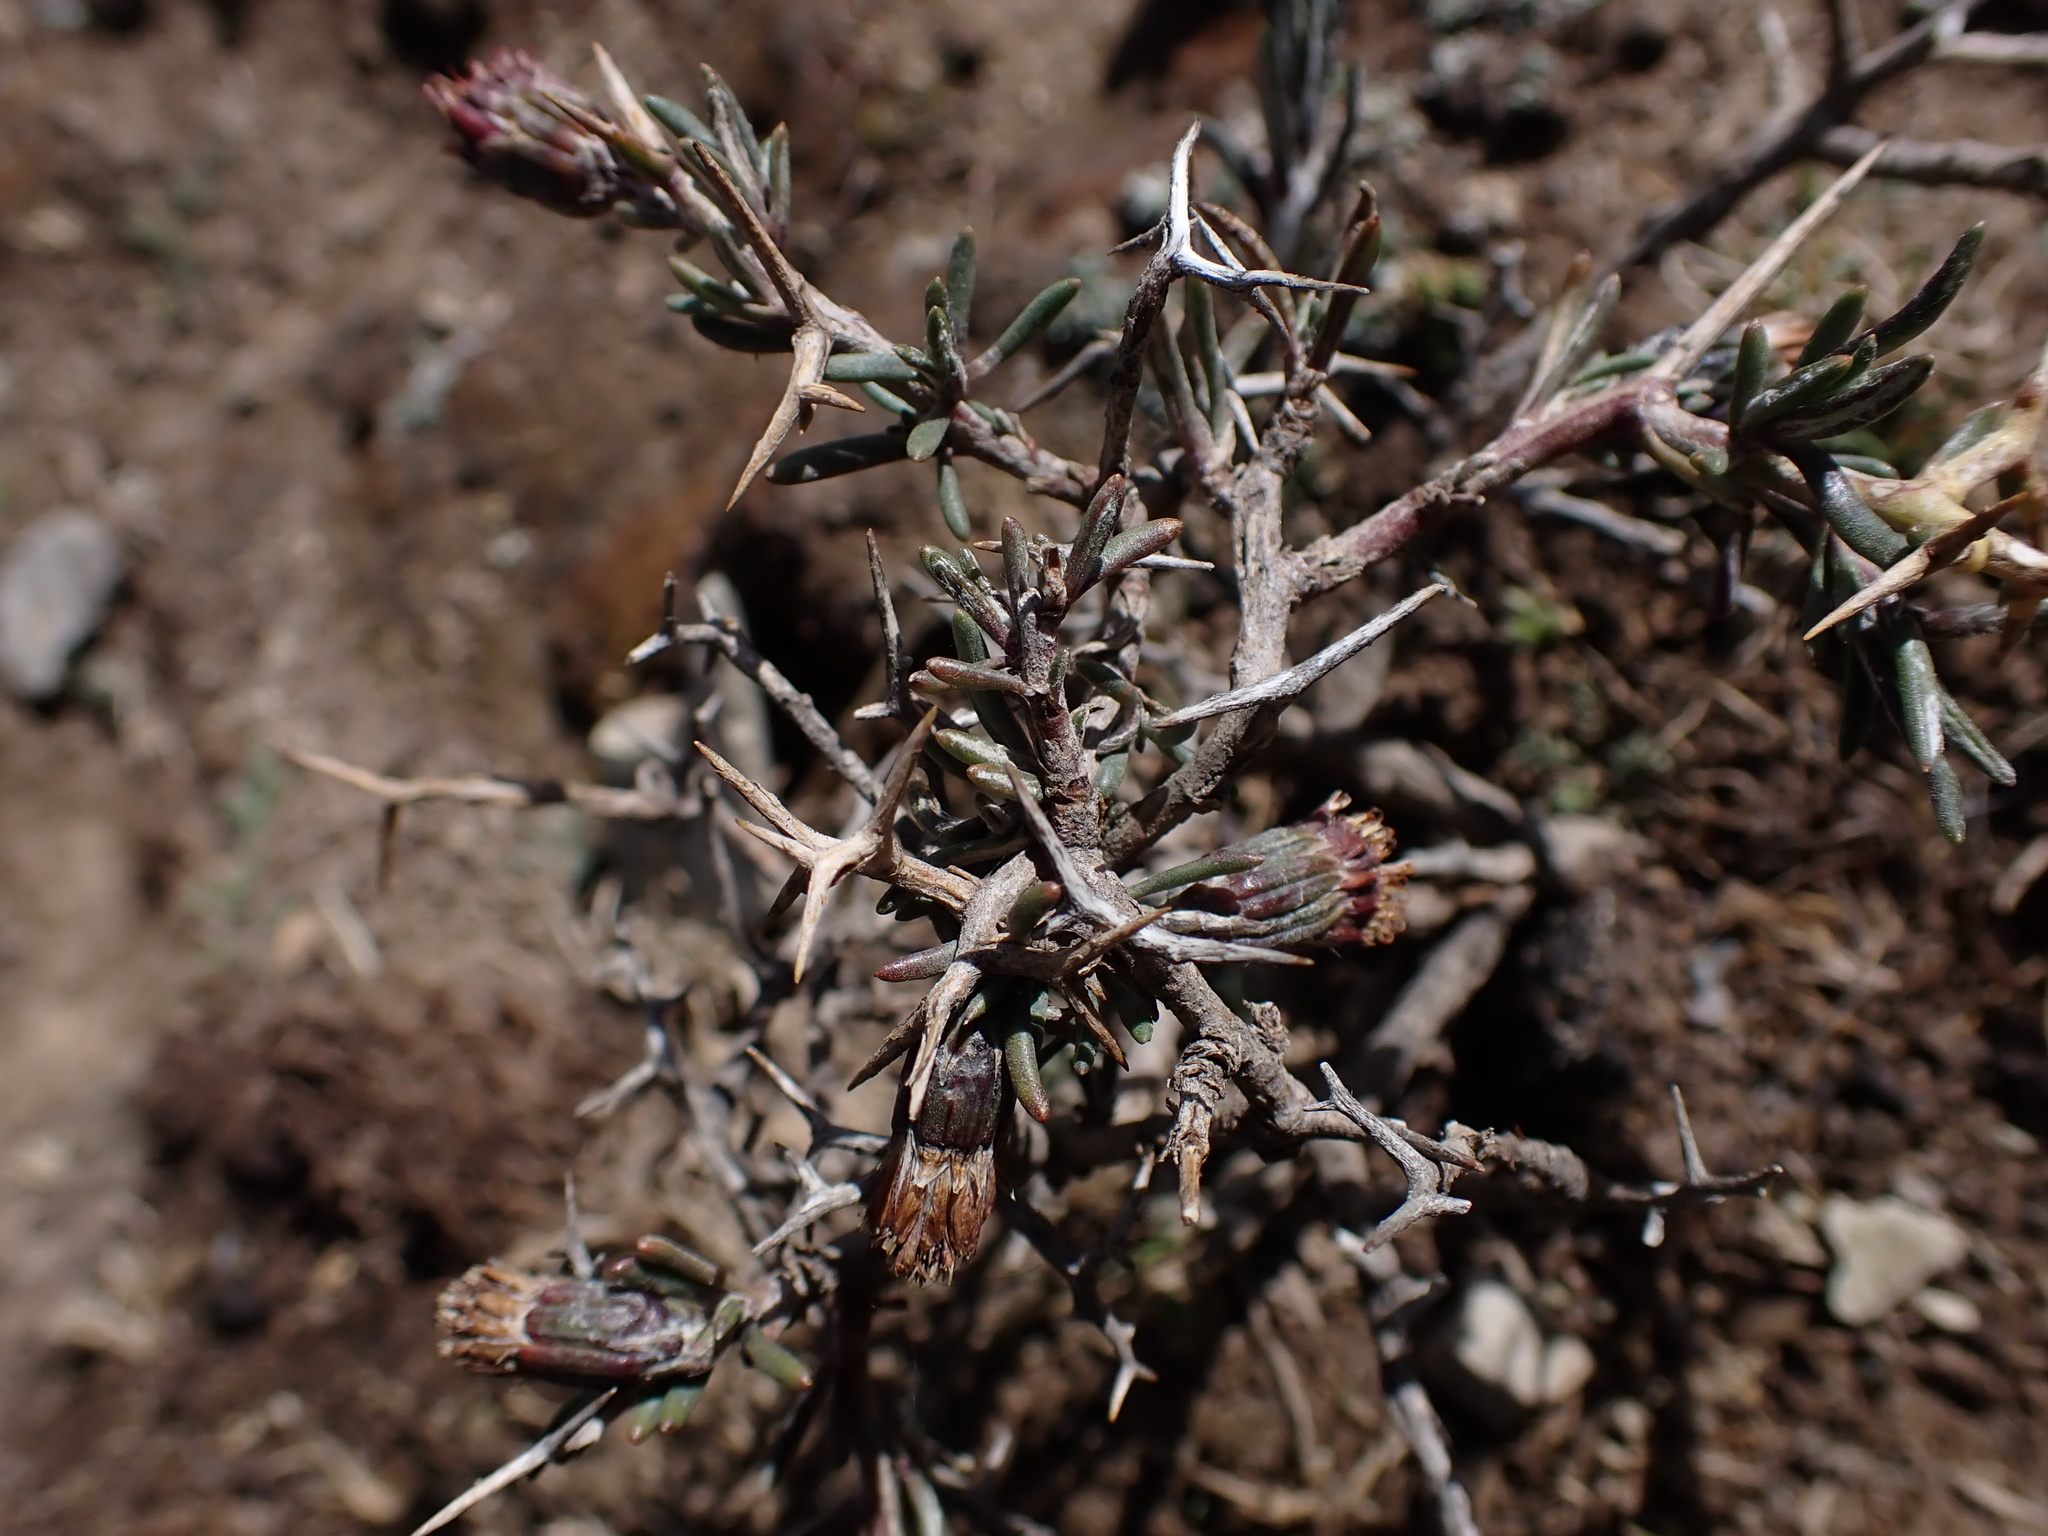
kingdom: Plantae
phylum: Tracheophyta
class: Magnoliopsida
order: Asterales
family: Asteraceae
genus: Senecio
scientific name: Senecio spinosus
